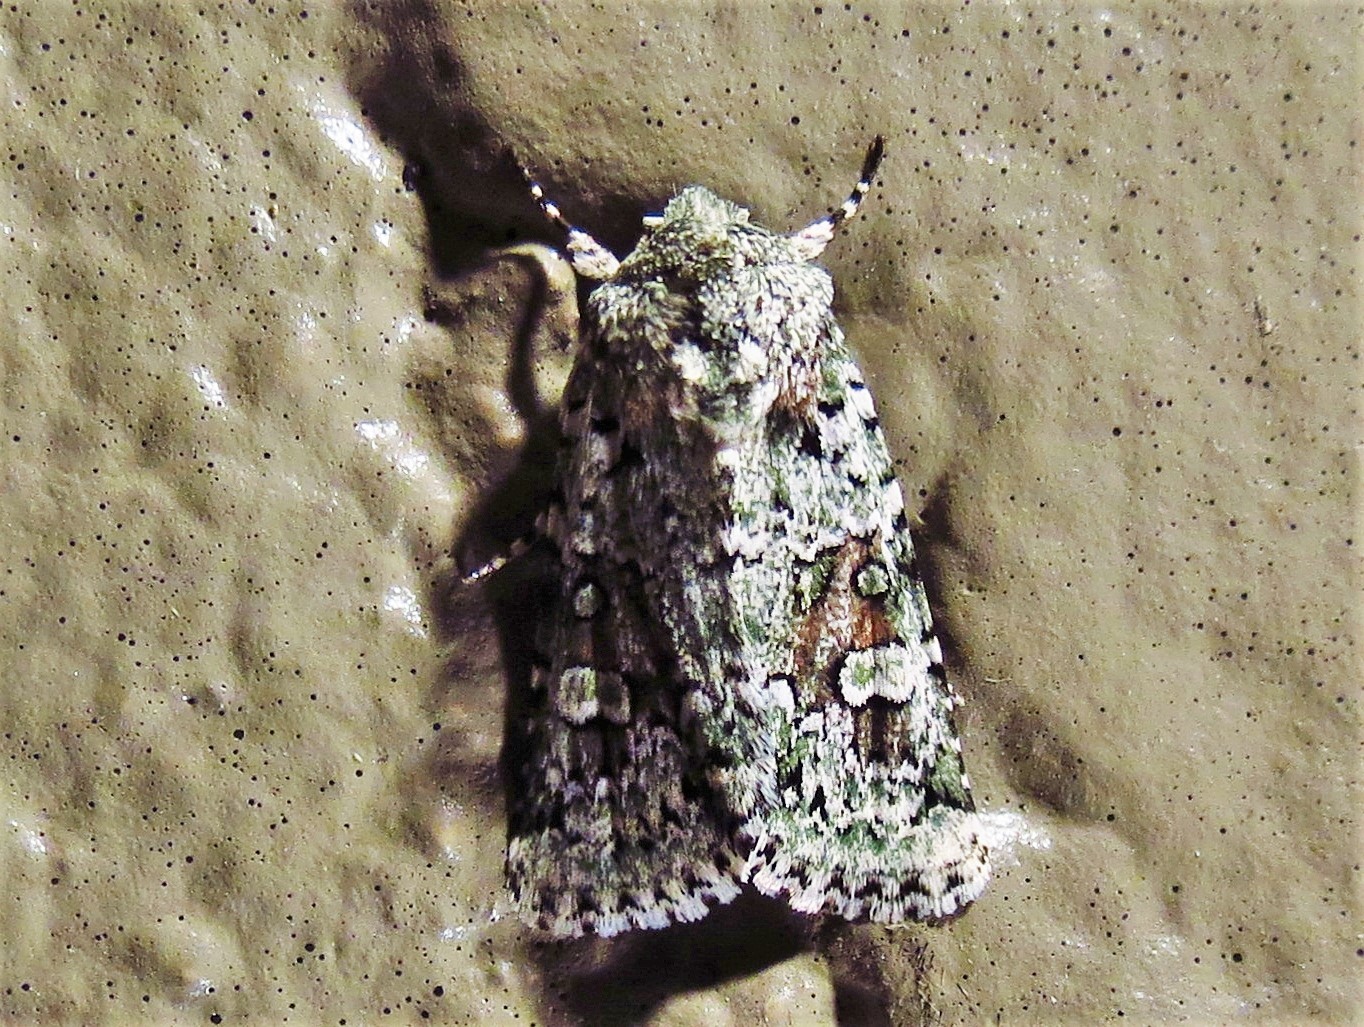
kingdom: Animalia
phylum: Arthropoda
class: Insecta
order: Lepidoptera
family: Noctuidae
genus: Lacinipolia
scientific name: Lacinipolia laudabilis
